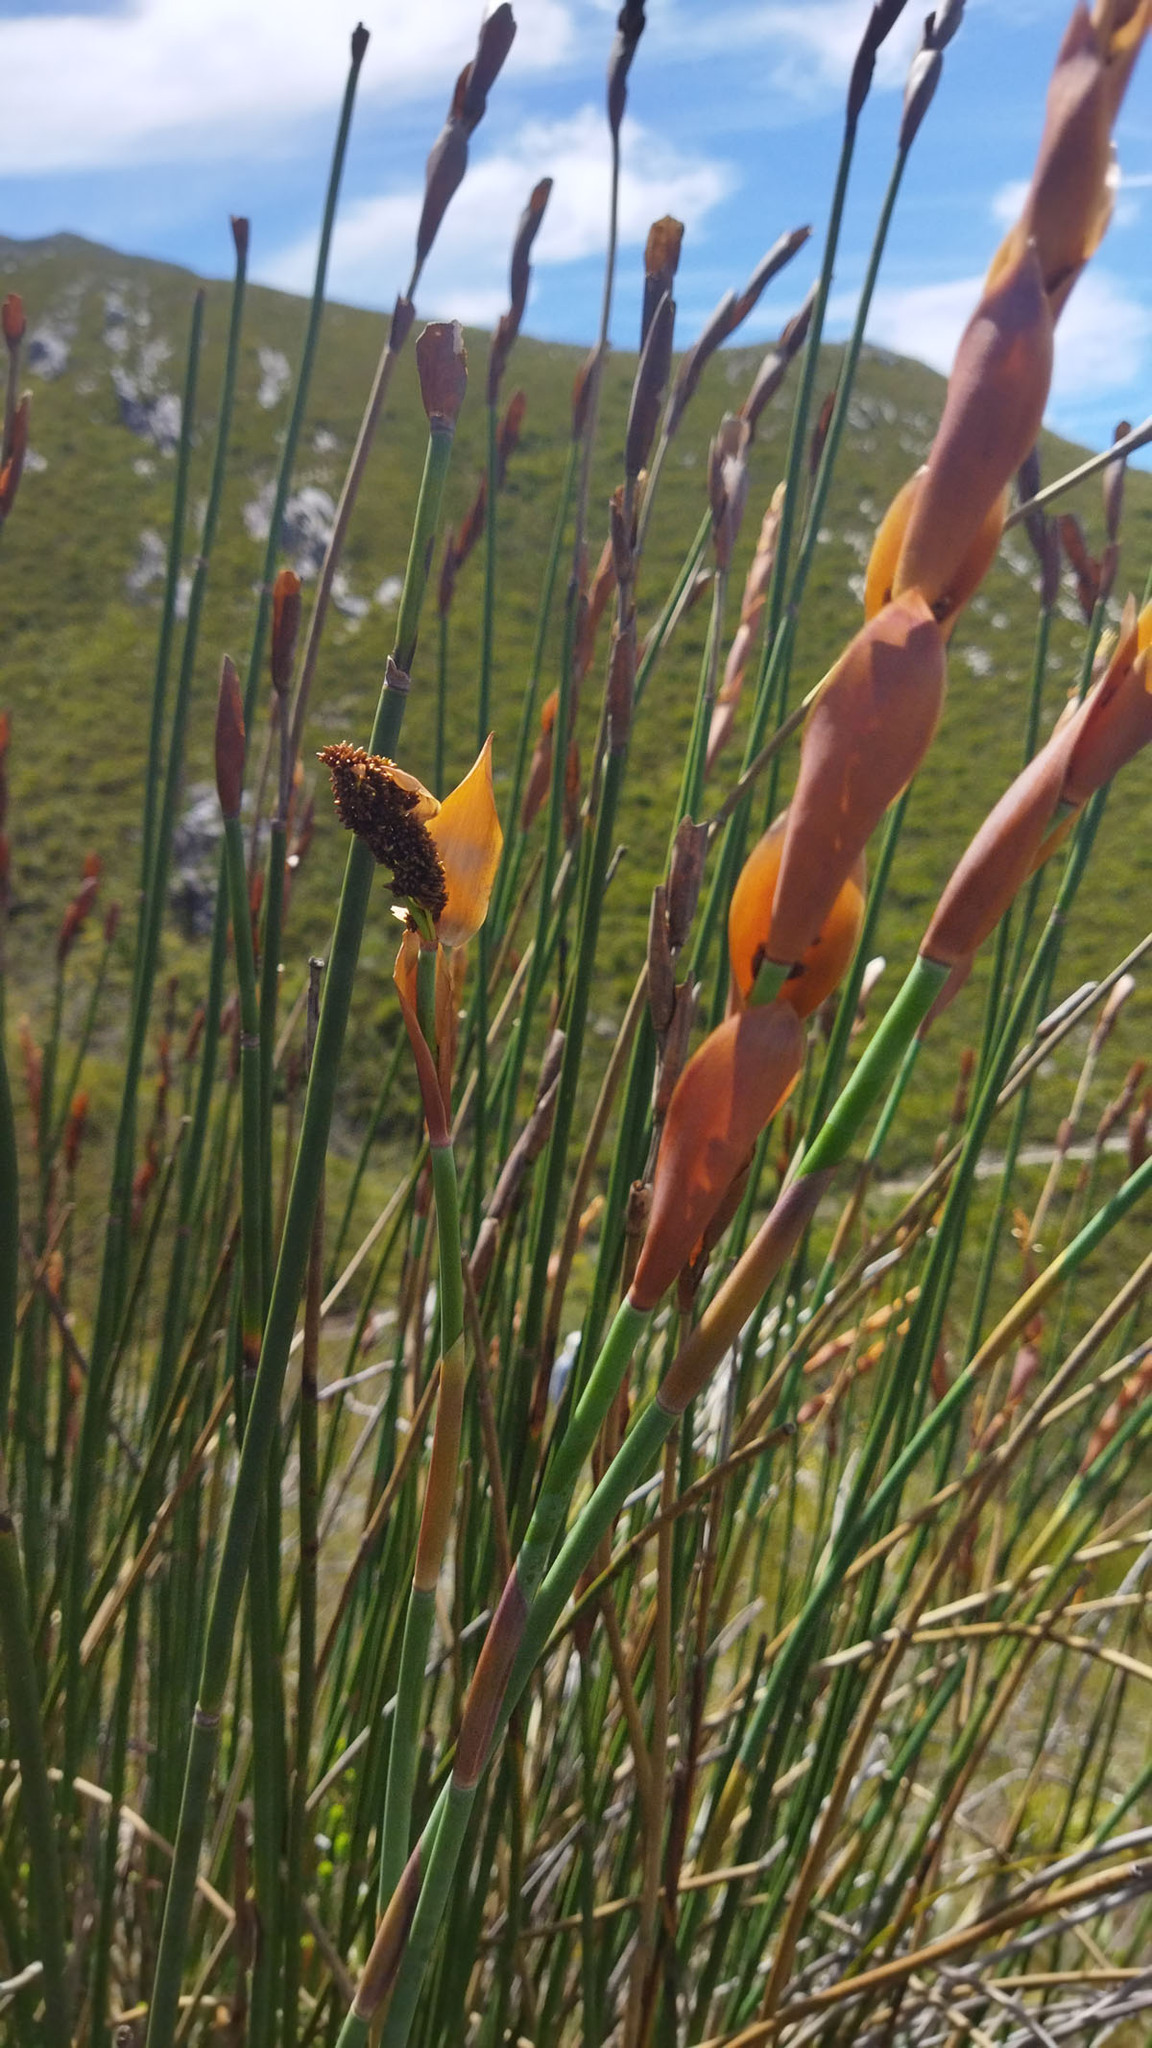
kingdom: Plantae
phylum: Tracheophyta
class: Liliopsida
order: Poales
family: Restionaceae
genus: Elegia
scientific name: Elegia thyrsoidea
